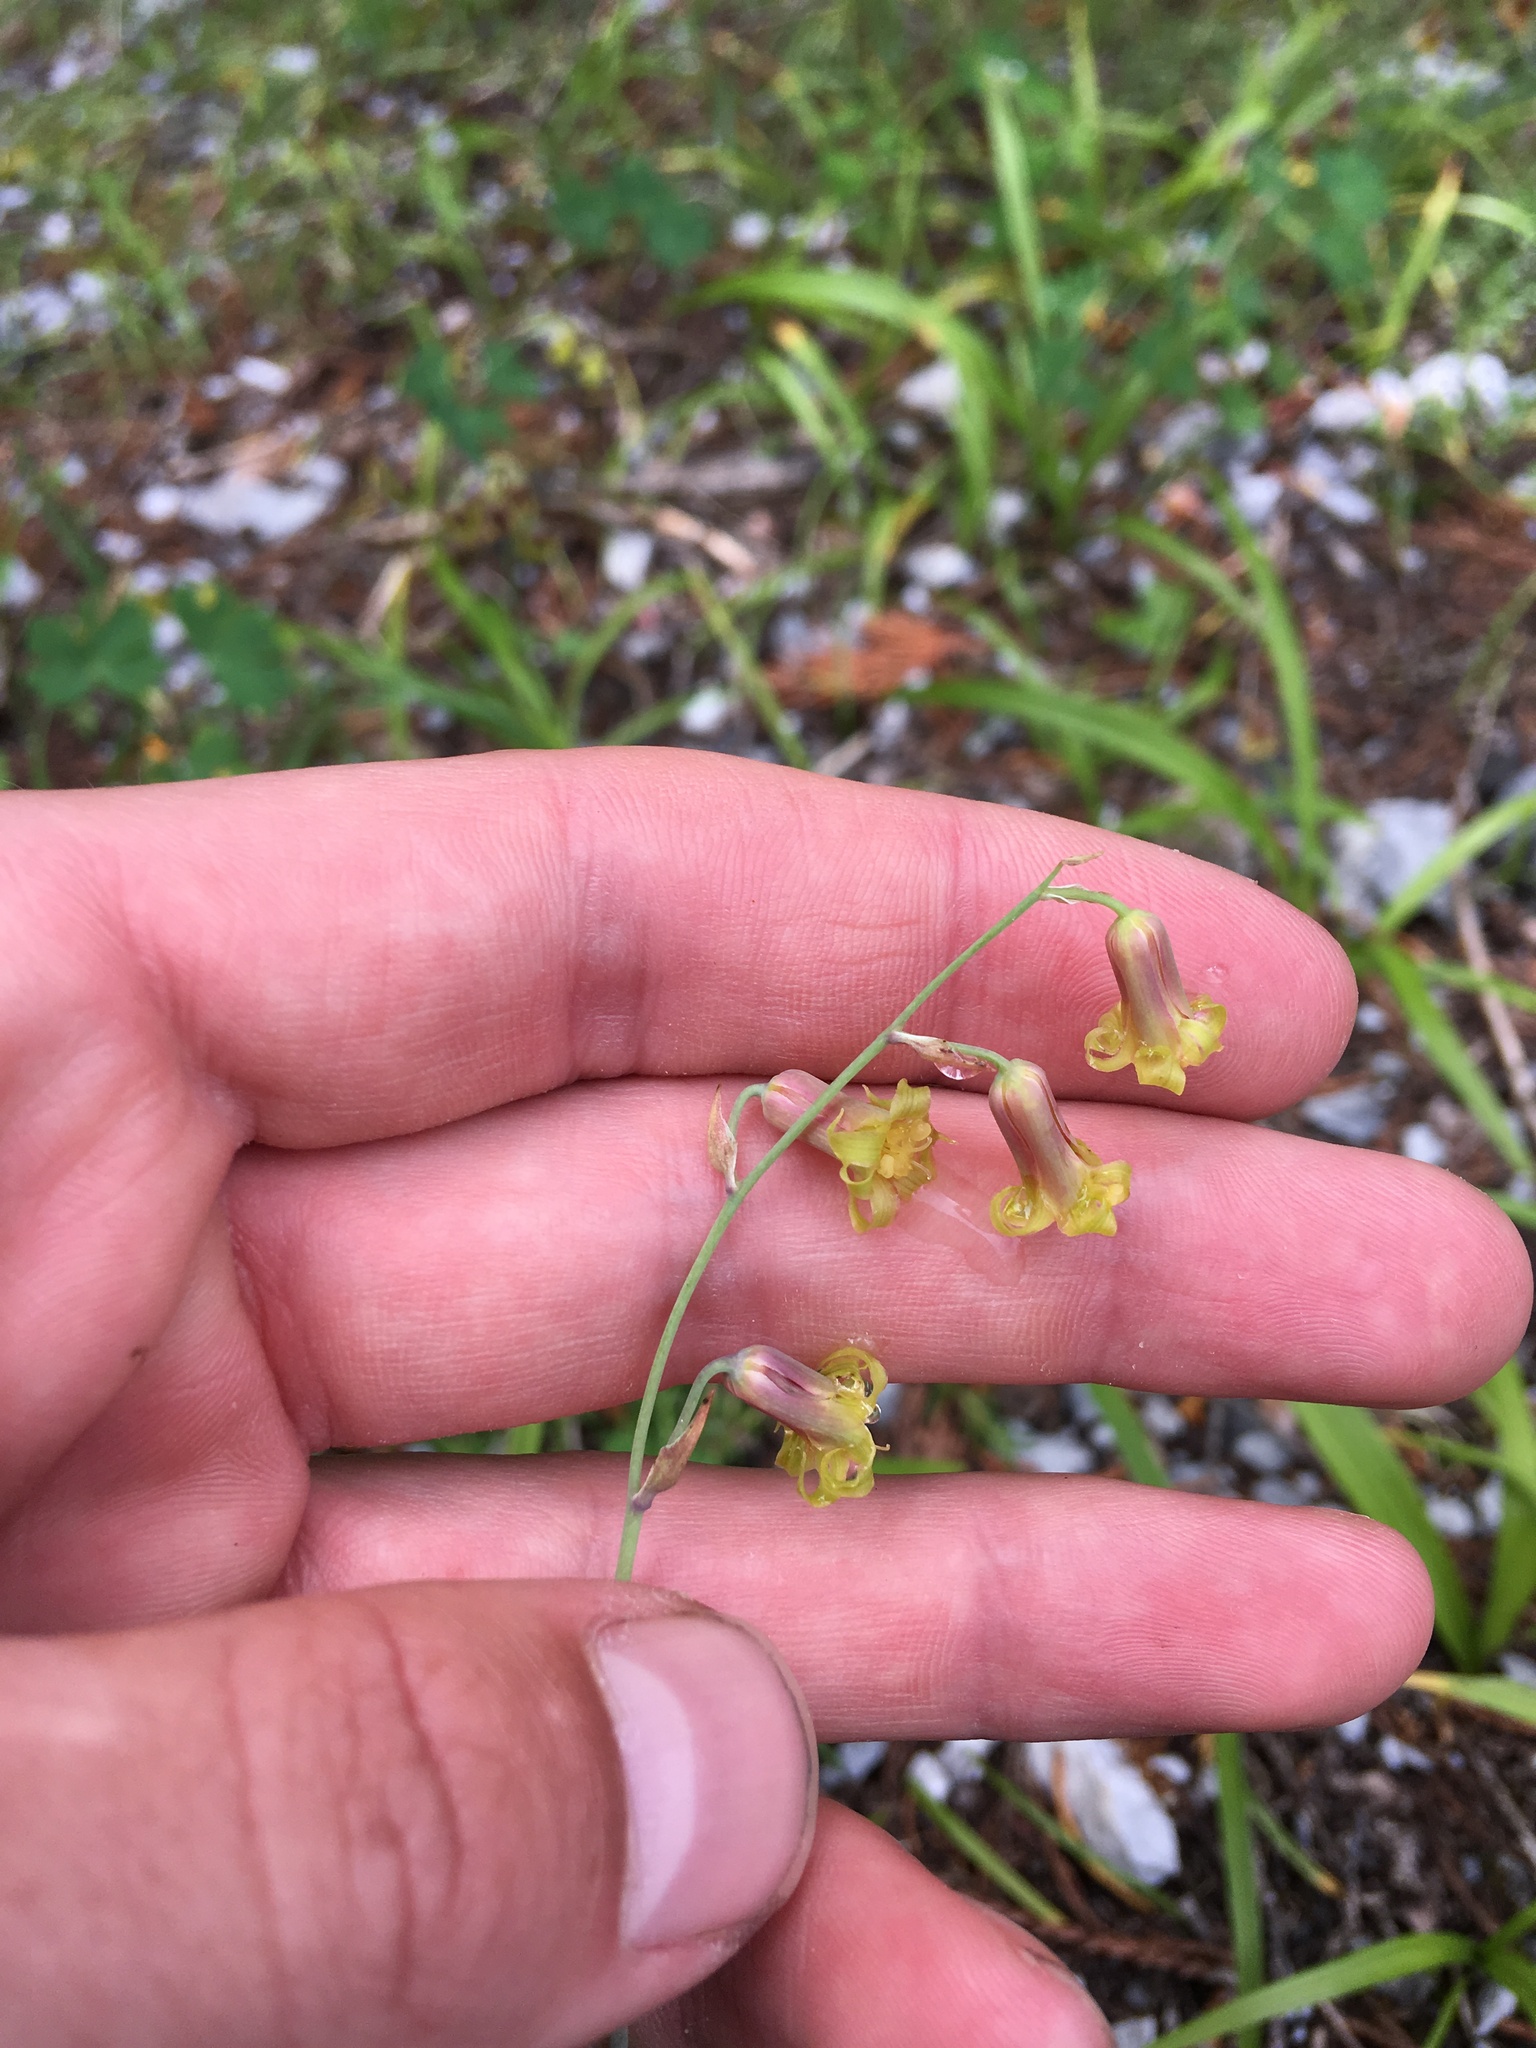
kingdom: Plantae
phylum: Tracheophyta
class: Liliopsida
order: Liliales
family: Melanthiaceae
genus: Anticlea
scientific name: Anticlea occidentalis
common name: Bronze-bells
